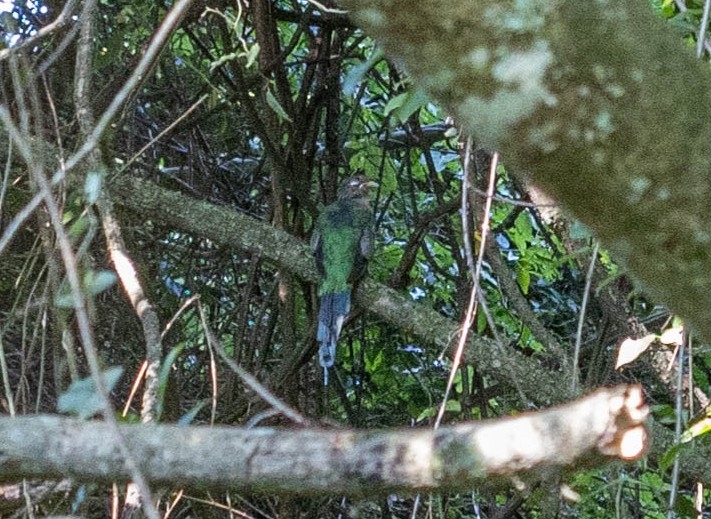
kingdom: Animalia
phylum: Chordata
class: Aves
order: Trogoniformes
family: Trogonidae
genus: Apaloderma
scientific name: Apaloderma narina
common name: Narina trogon
